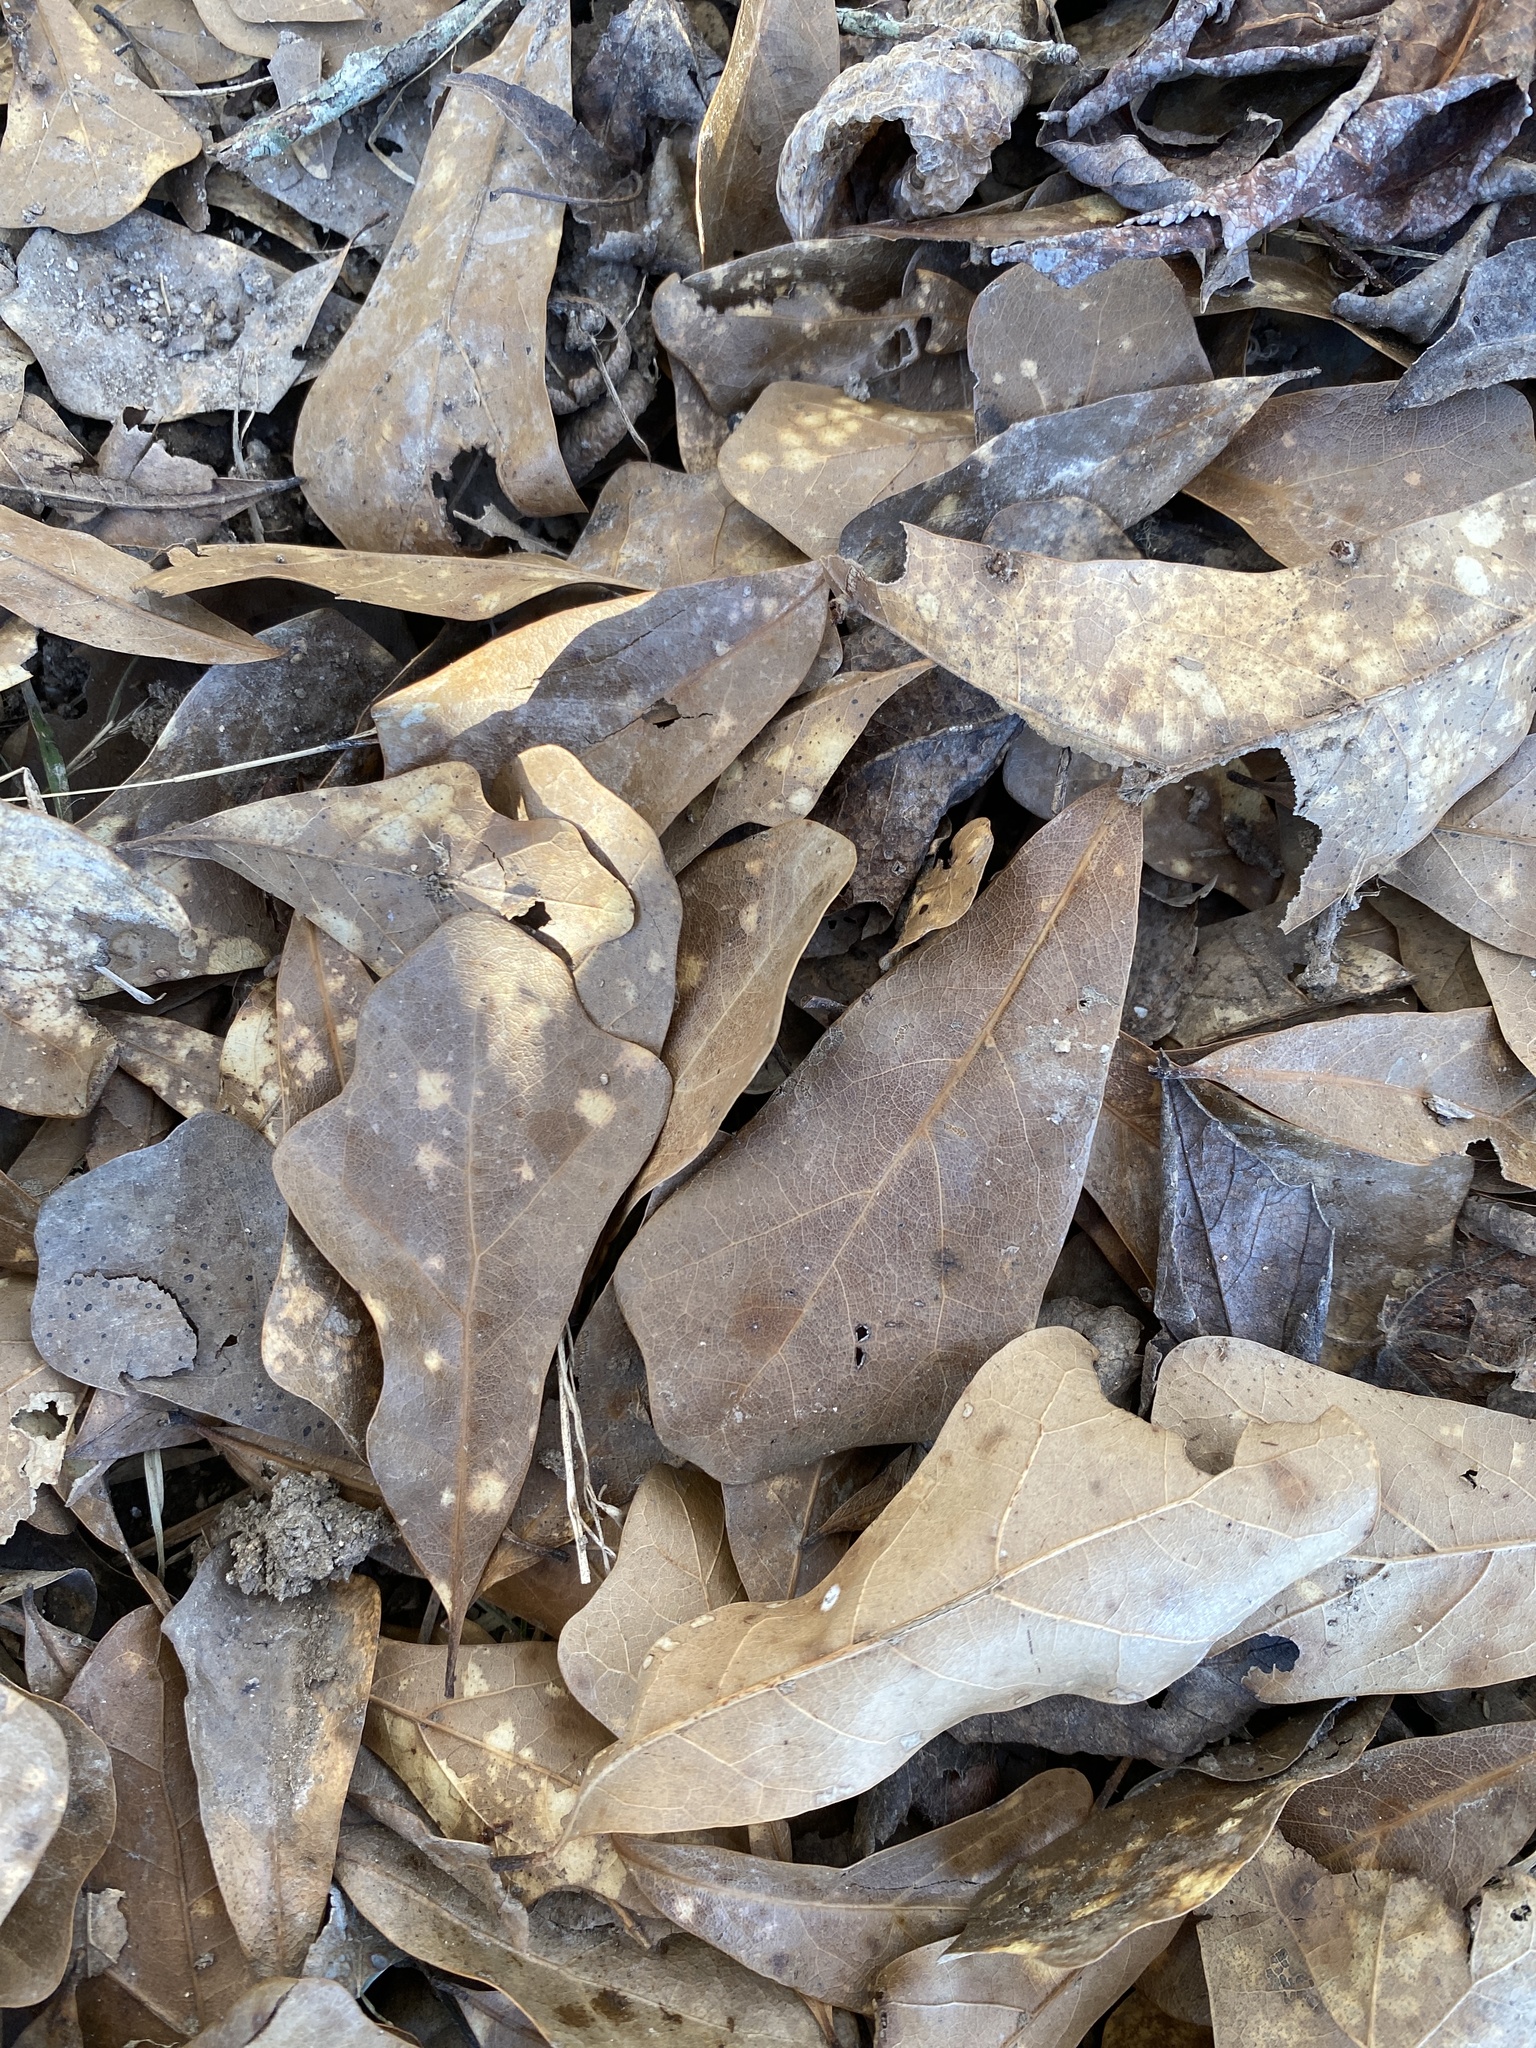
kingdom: Plantae
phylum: Tracheophyta
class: Magnoliopsida
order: Fagales
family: Fagaceae
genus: Quercus
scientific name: Quercus nigra
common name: Water oak
